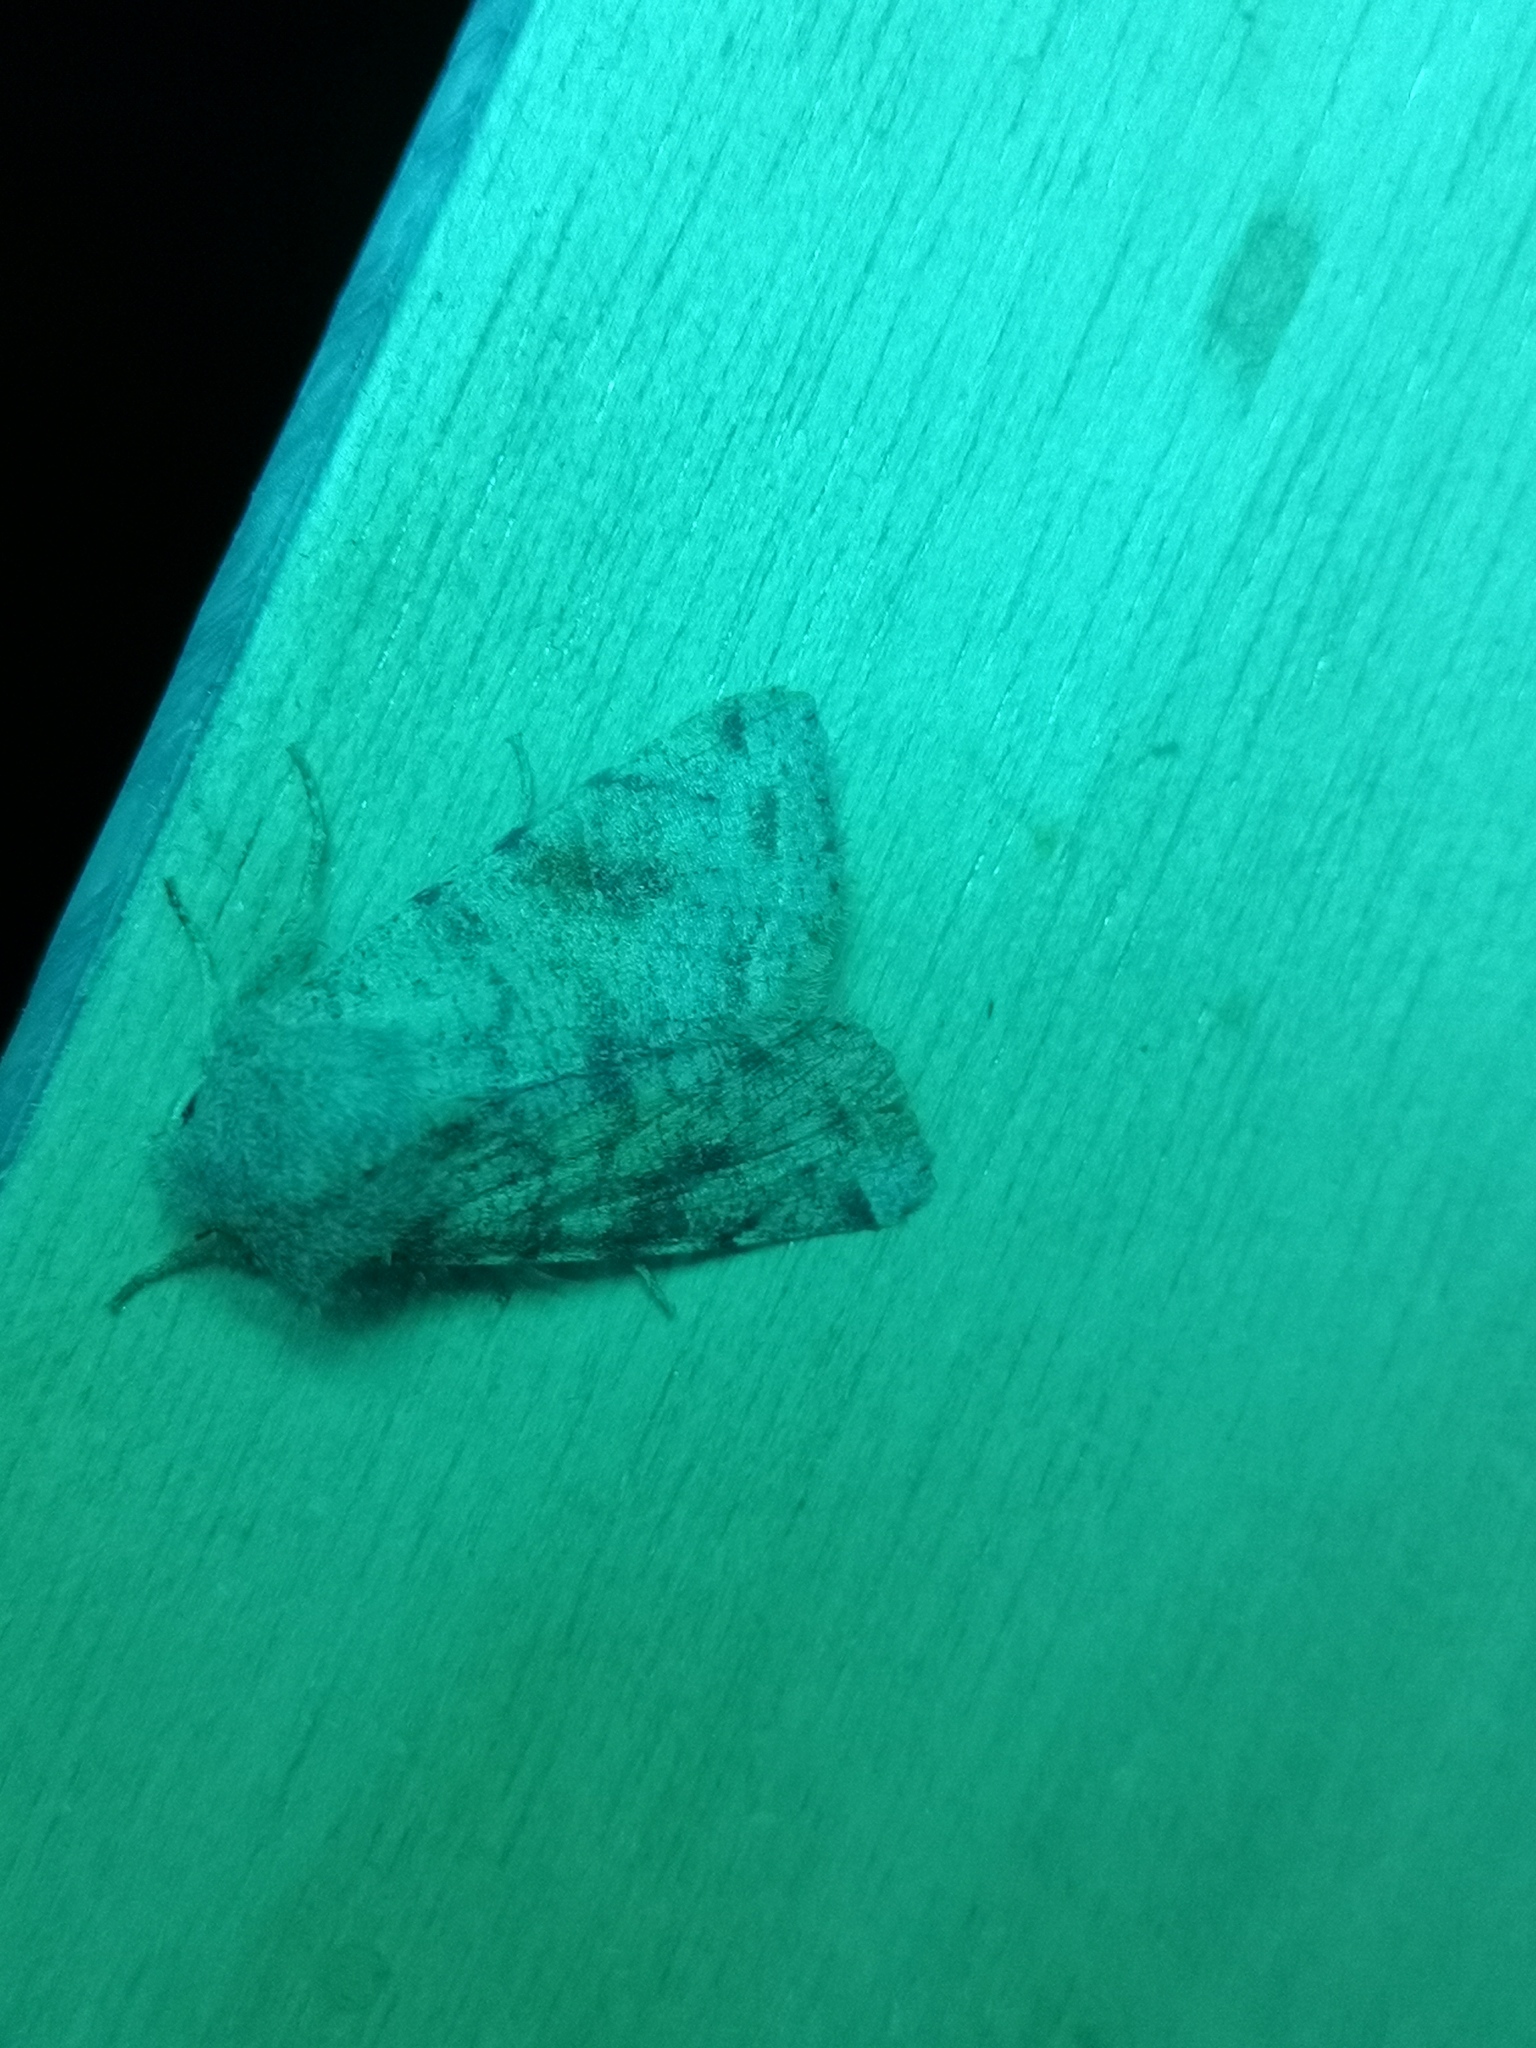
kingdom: Animalia
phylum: Arthropoda
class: Insecta
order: Lepidoptera
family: Noctuidae
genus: Orthosia
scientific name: Orthosia incerta
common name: Clouded drab
